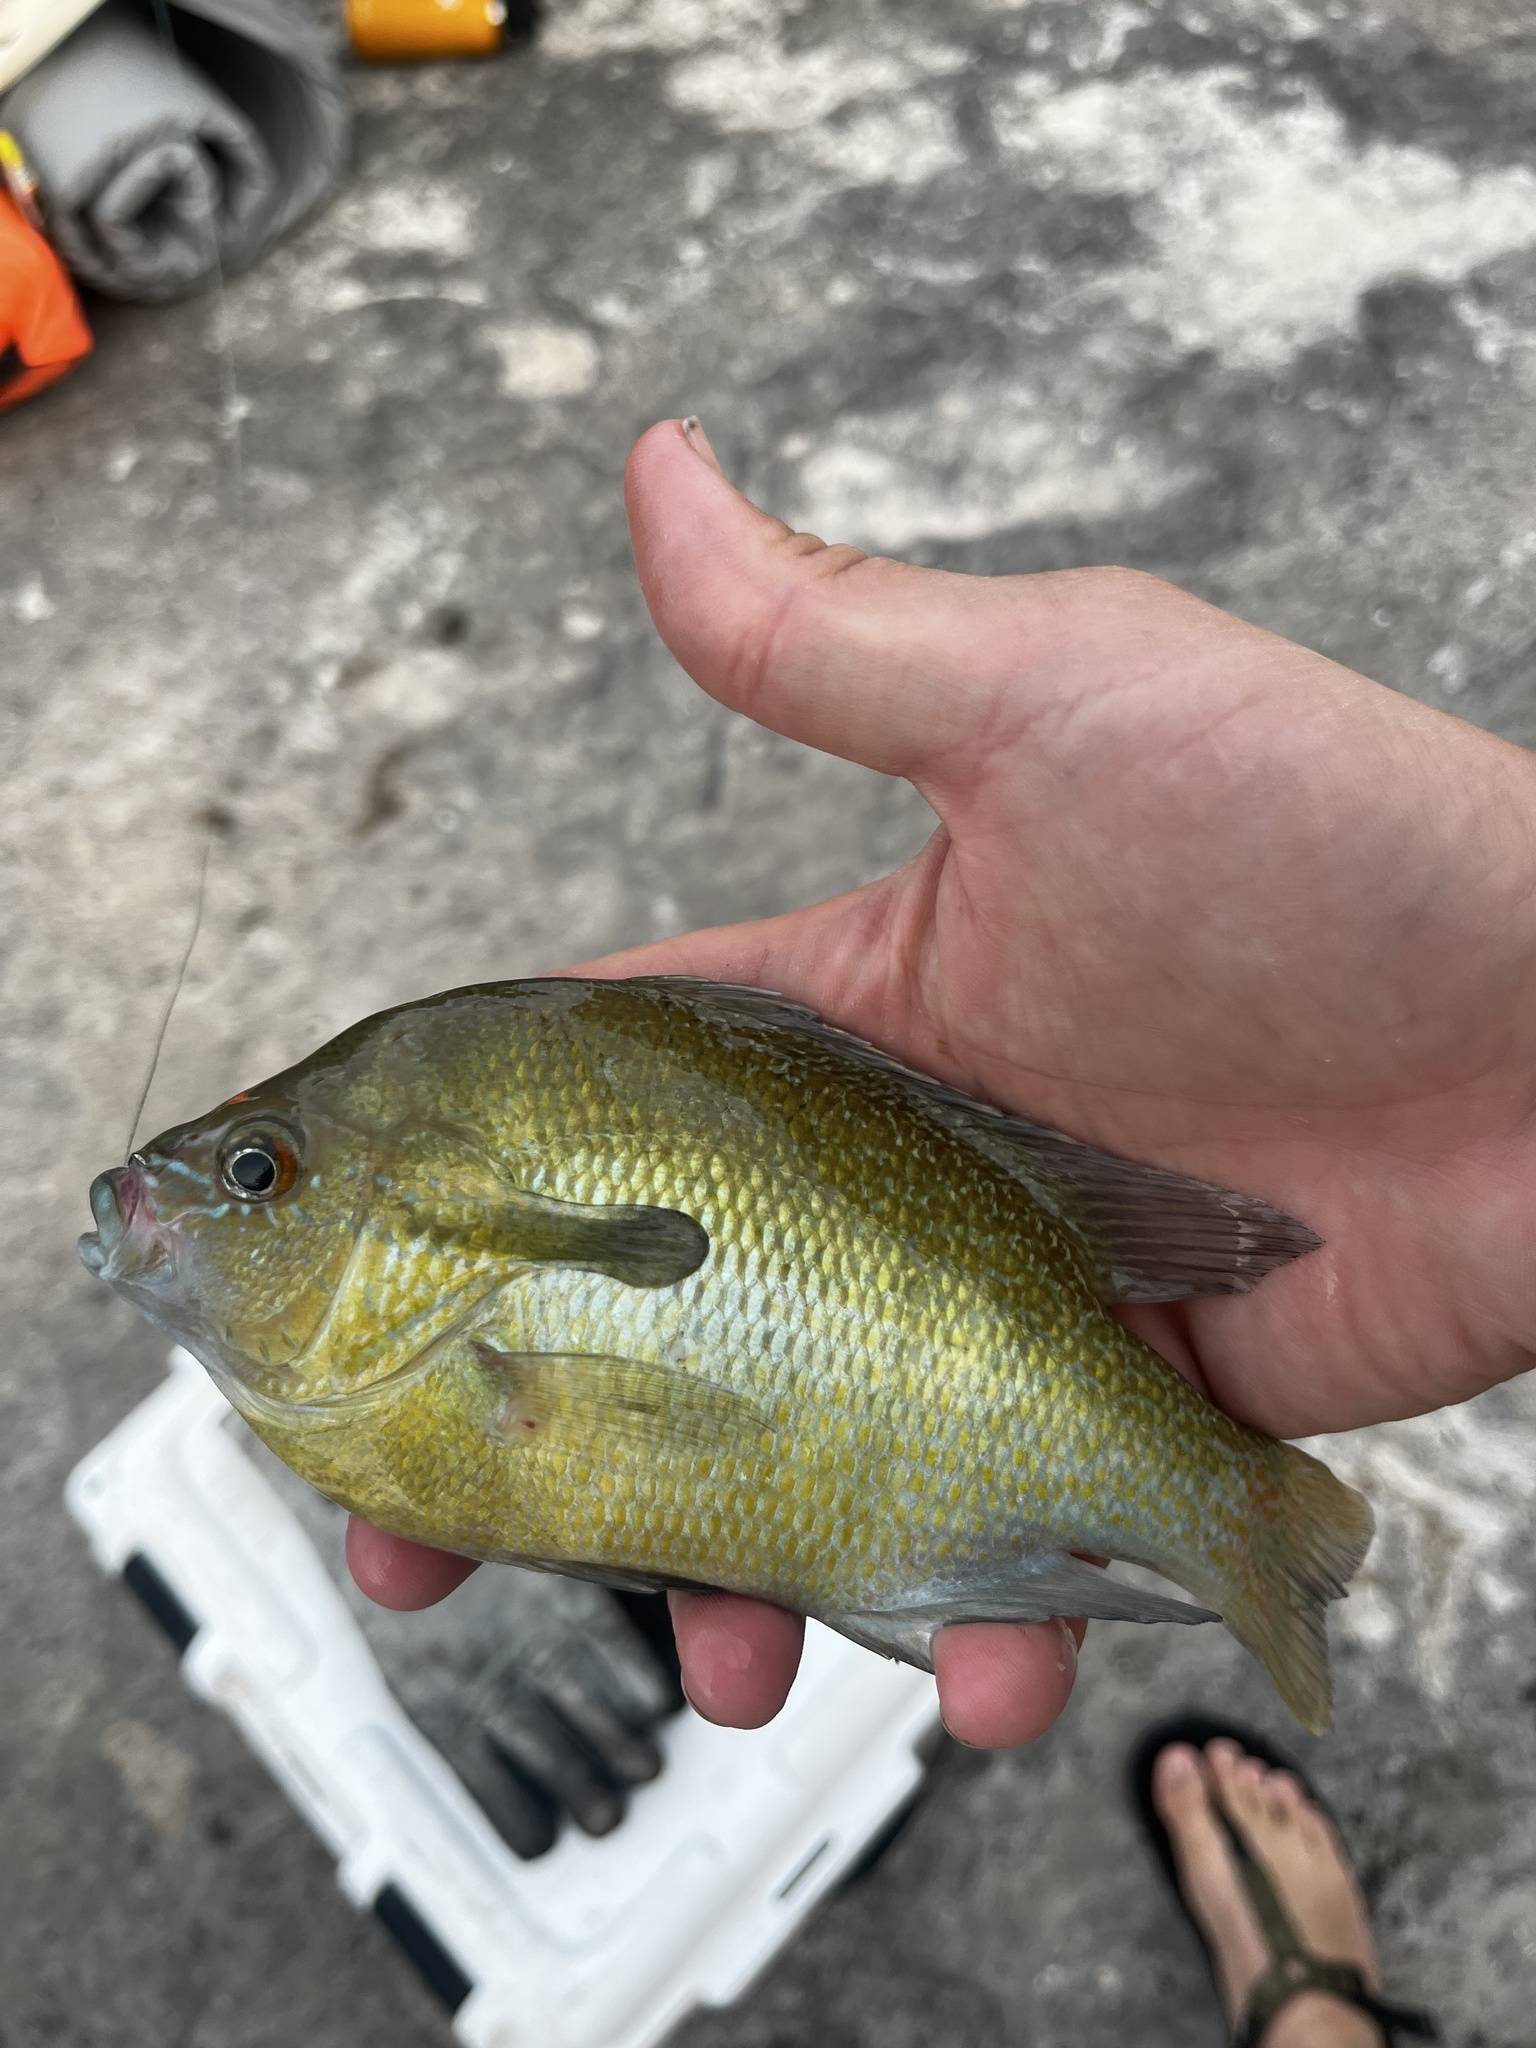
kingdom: Animalia
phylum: Chordata
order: Perciformes
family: Centrarchidae
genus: Lepomis
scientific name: Lepomis auritus
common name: Redbreast sunfish
